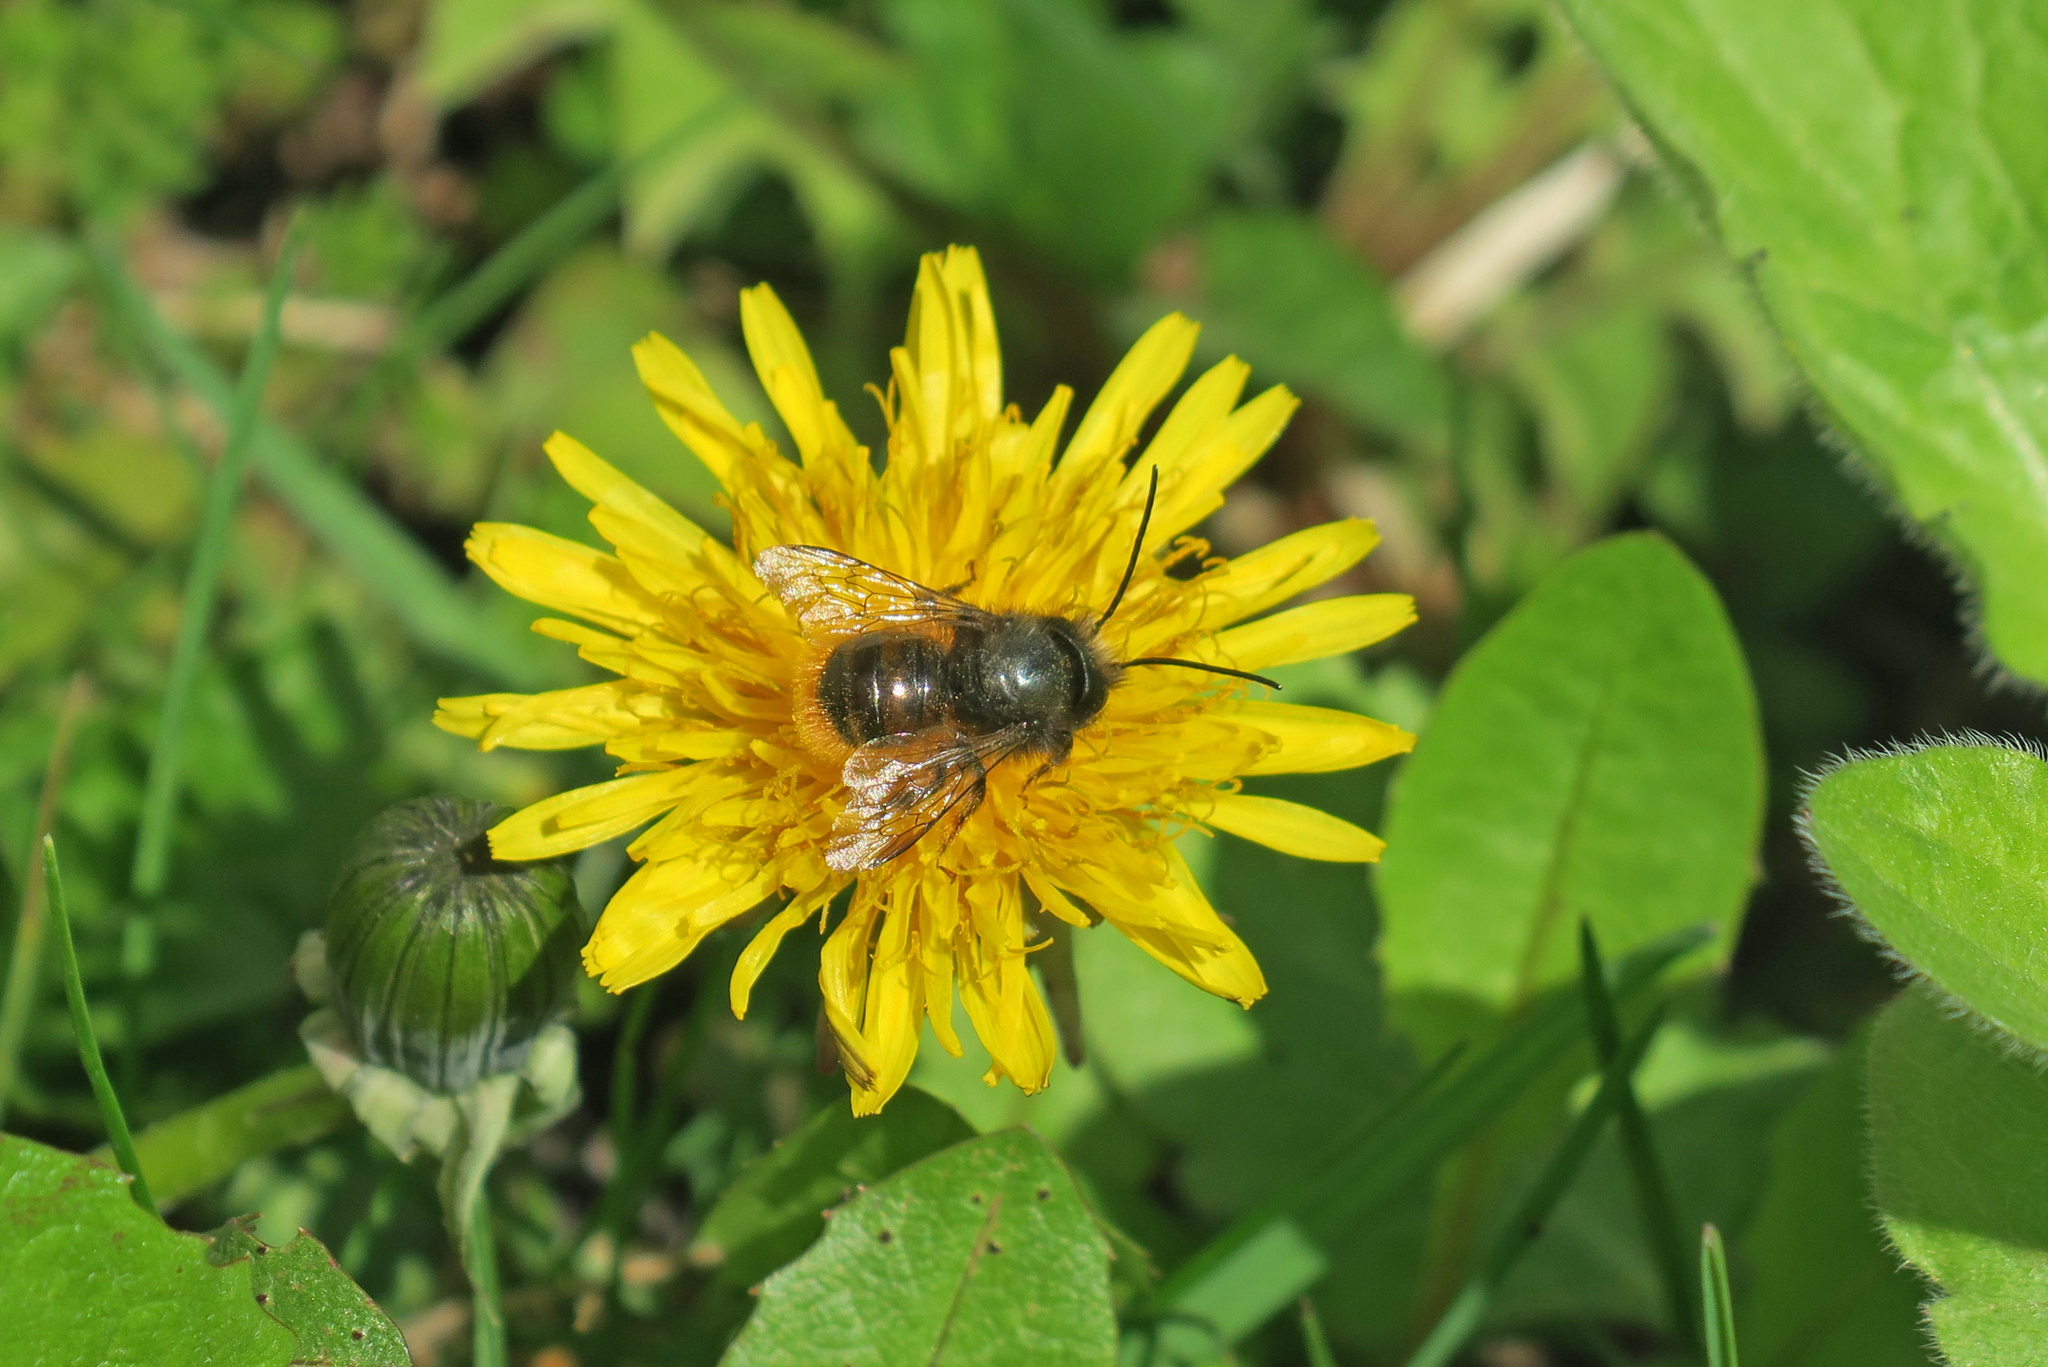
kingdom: Animalia
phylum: Arthropoda
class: Insecta
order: Hymenoptera
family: Megachilidae
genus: Osmia
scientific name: Osmia cornuta
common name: Mason bee
